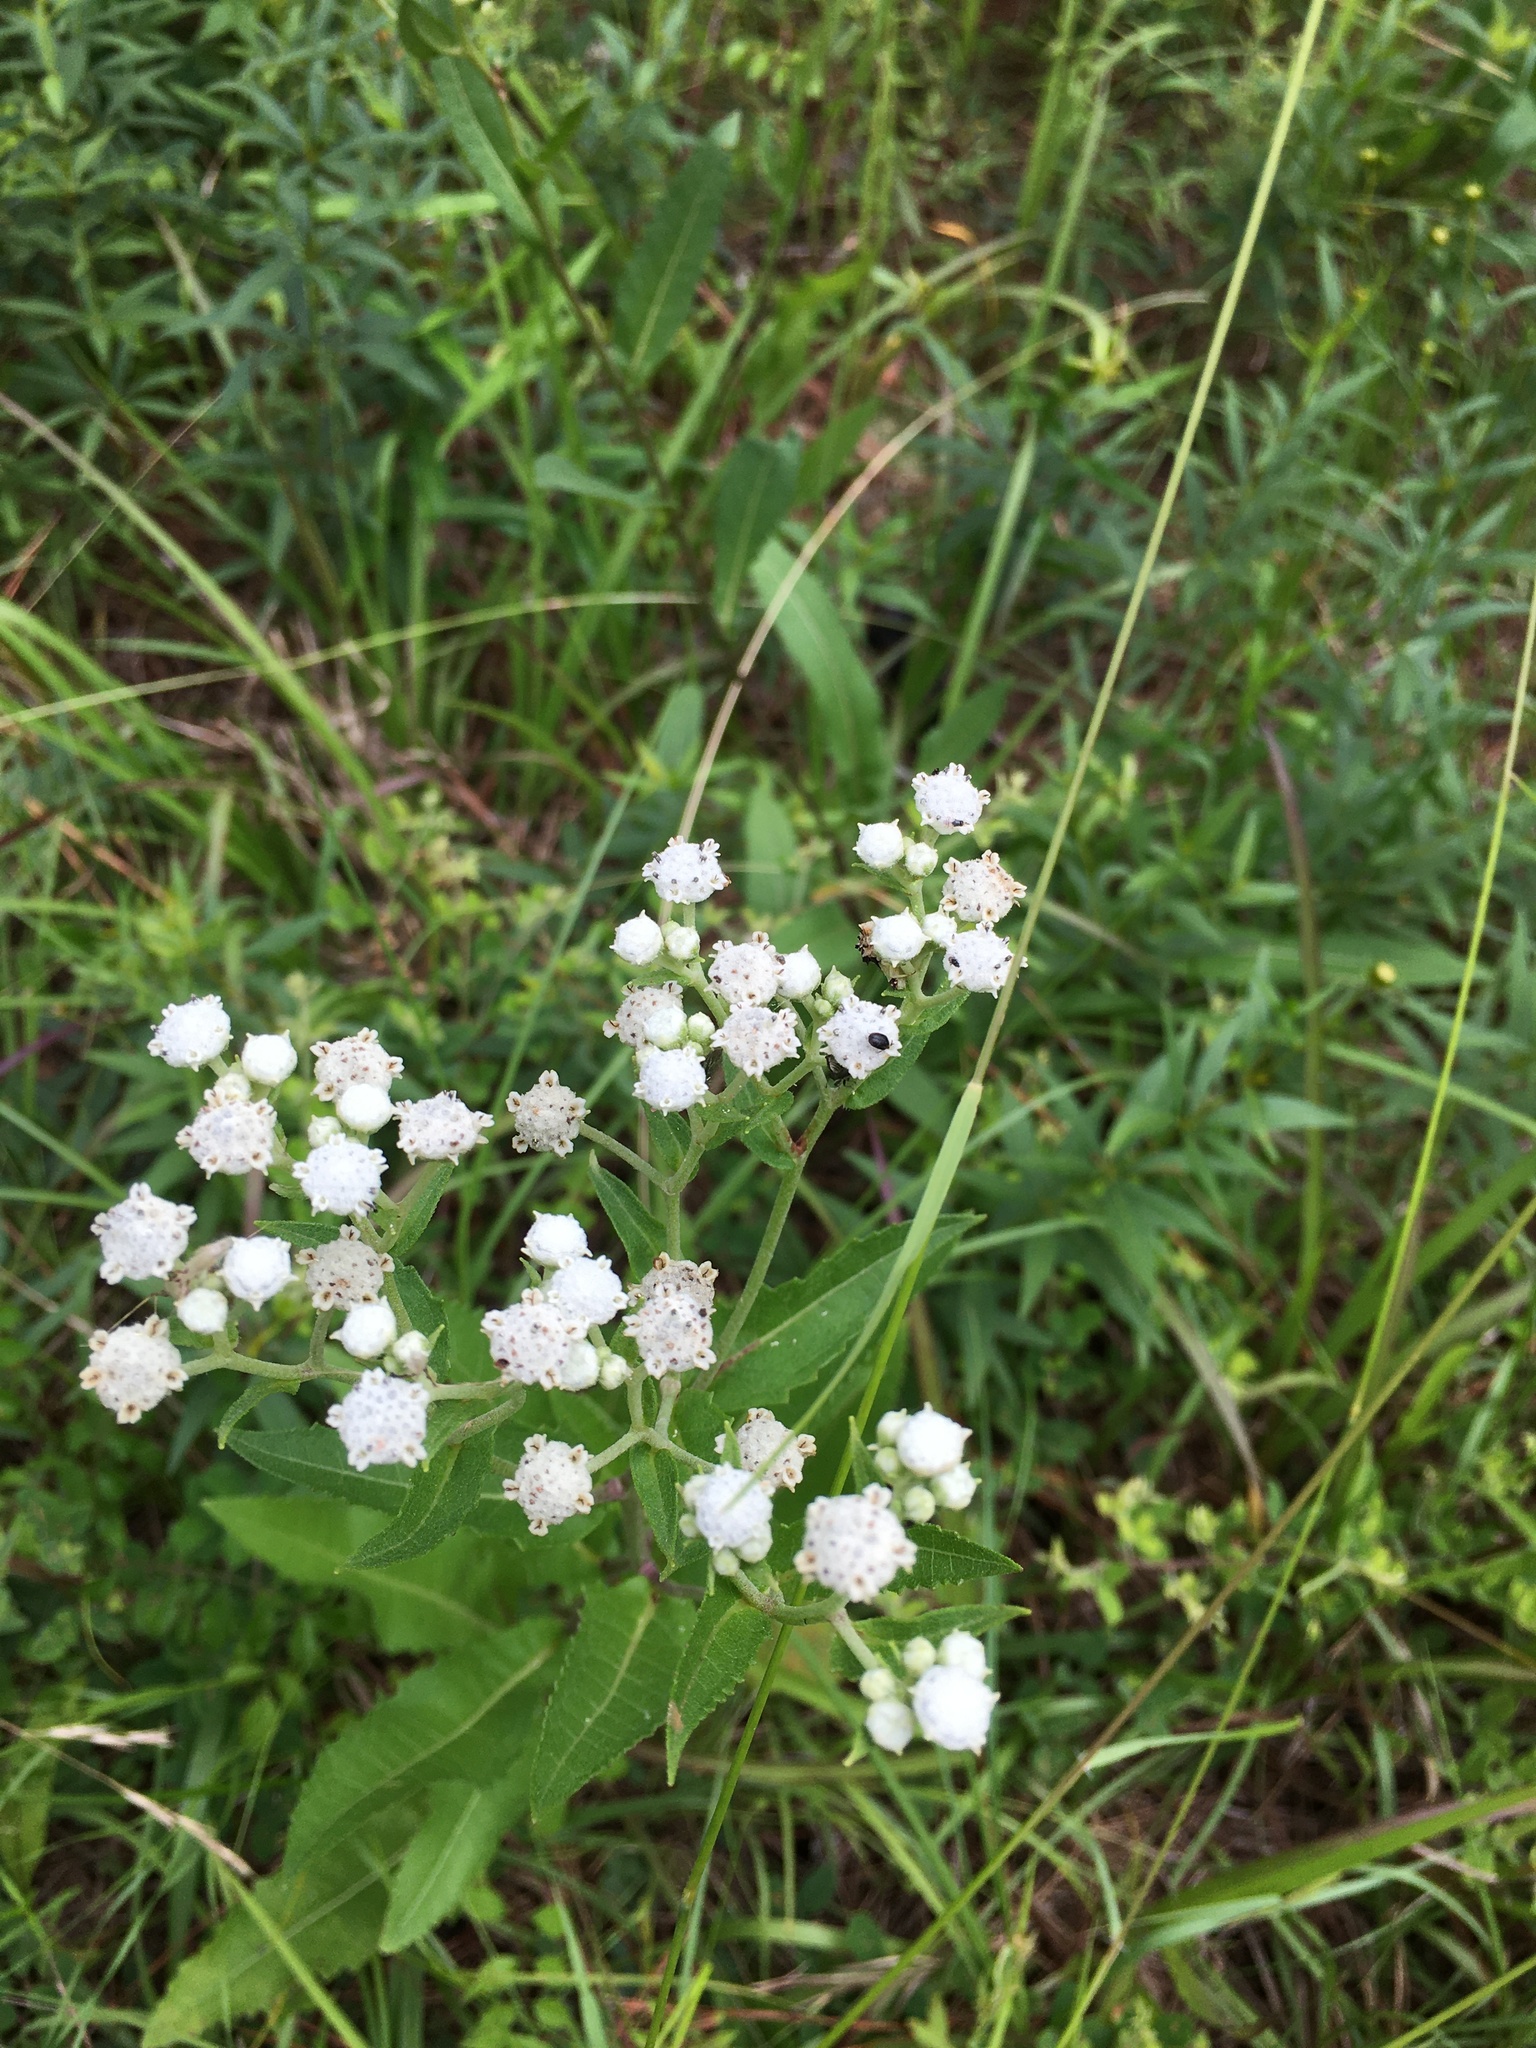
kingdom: Plantae
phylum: Tracheophyta
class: Magnoliopsida
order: Asterales
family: Asteraceae
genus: Parthenium
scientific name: Parthenium integrifolium
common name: American feverfew
